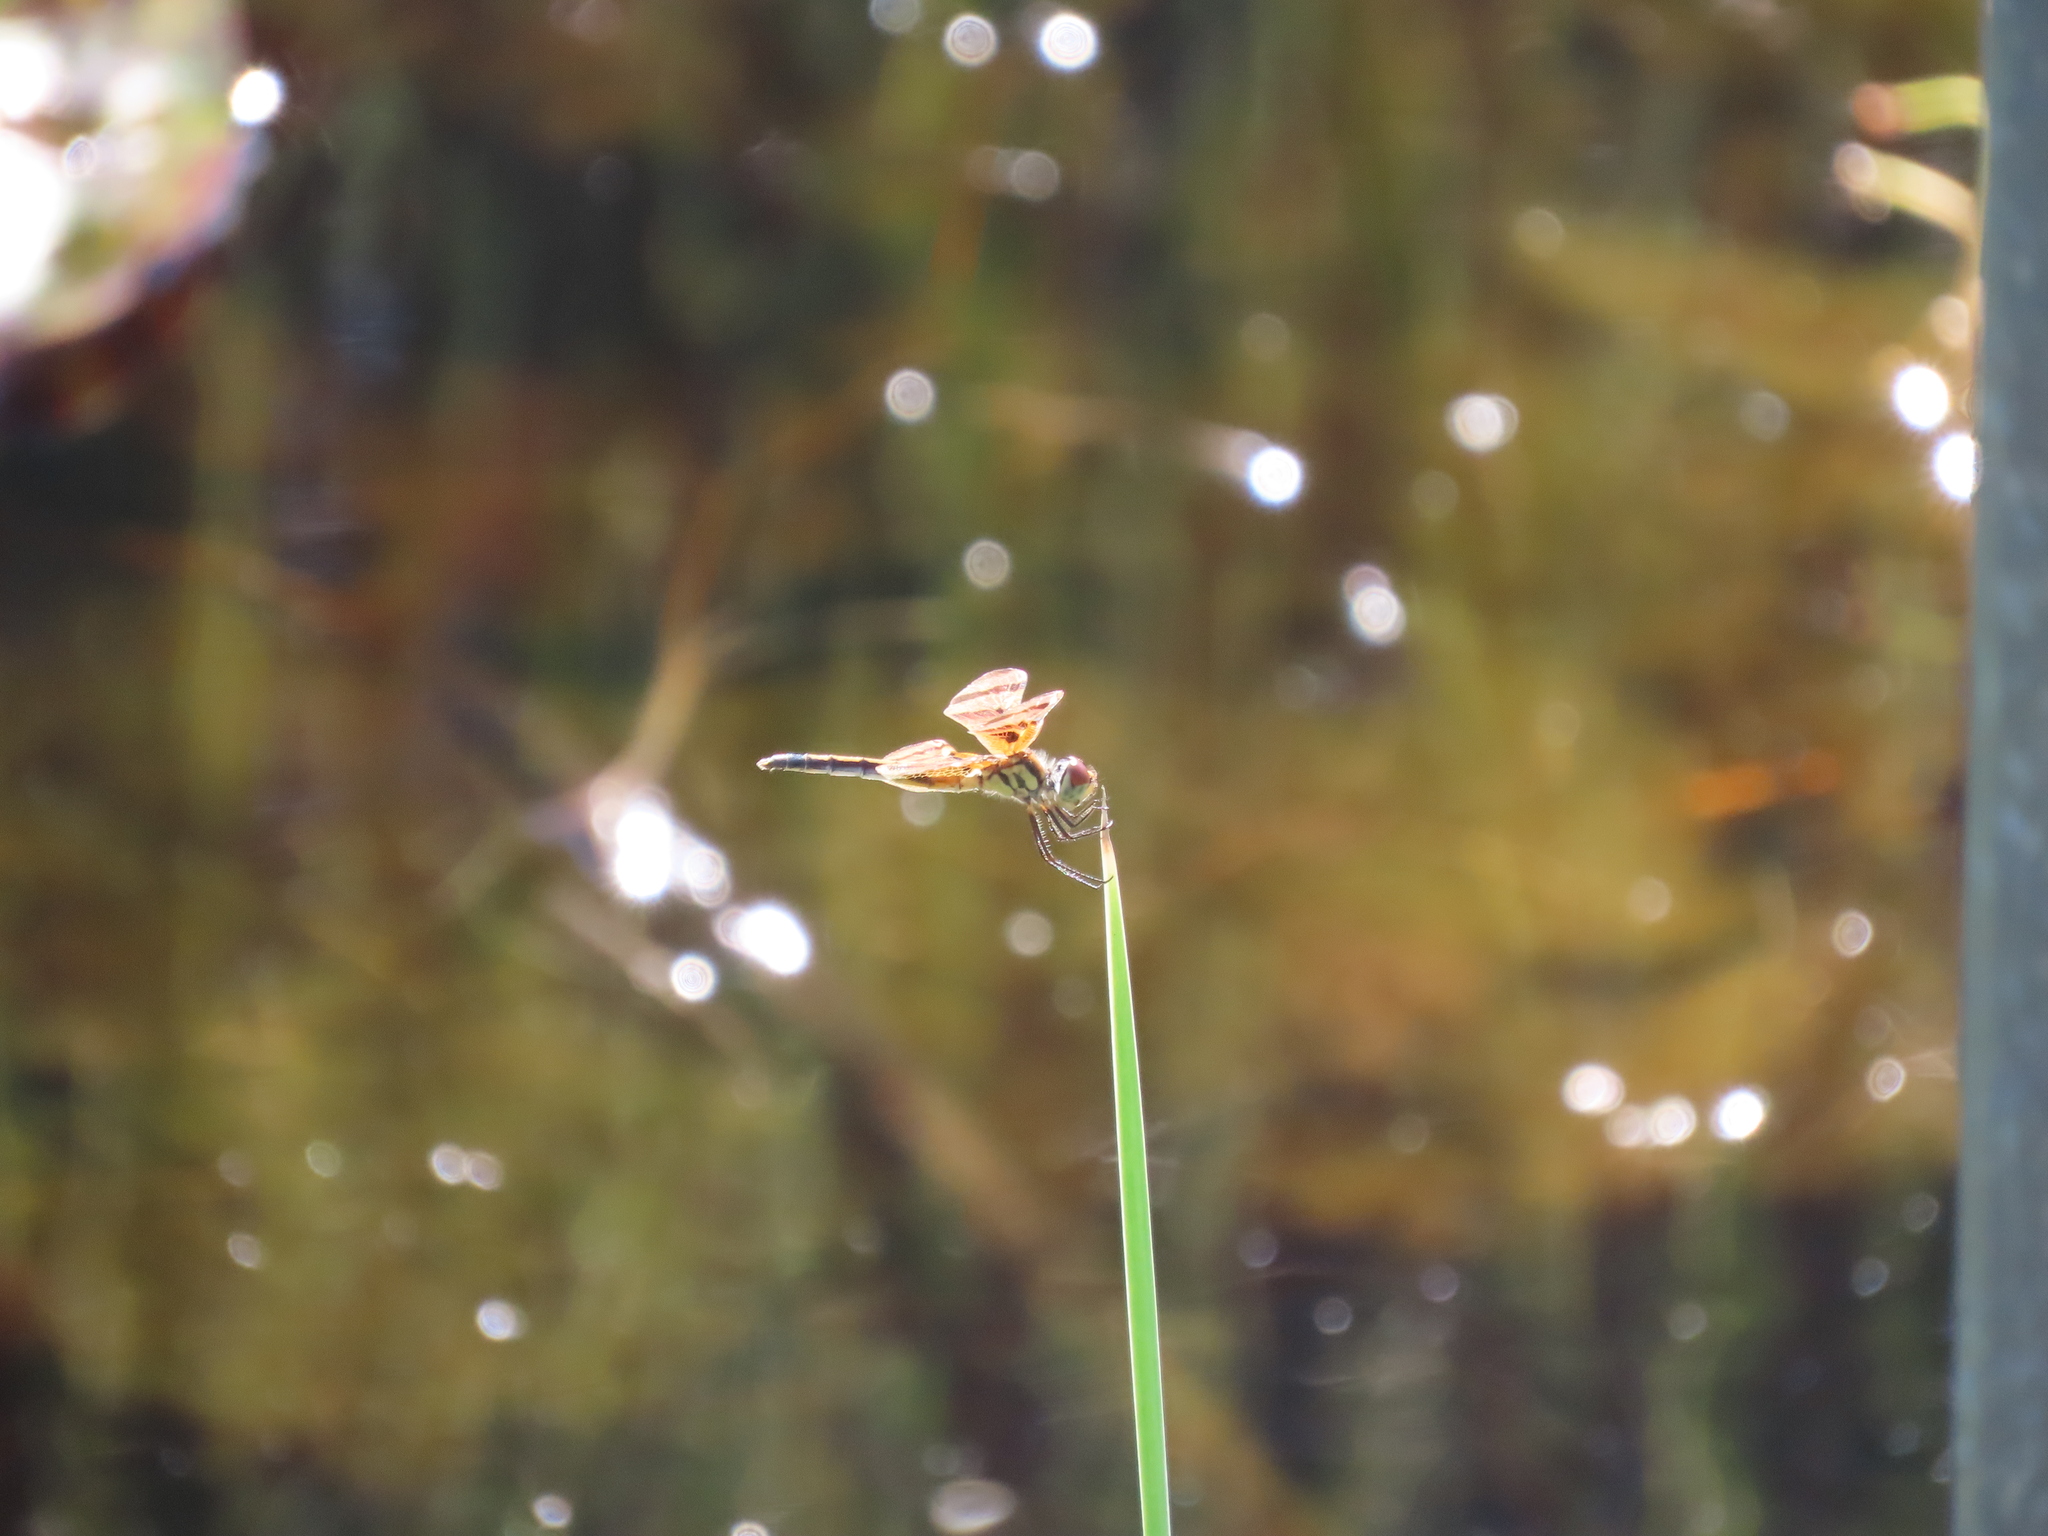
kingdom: Animalia
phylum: Arthropoda
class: Insecta
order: Odonata
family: Libellulidae
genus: Celithemis
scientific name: Celithemis eponina
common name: Halloween pennant
